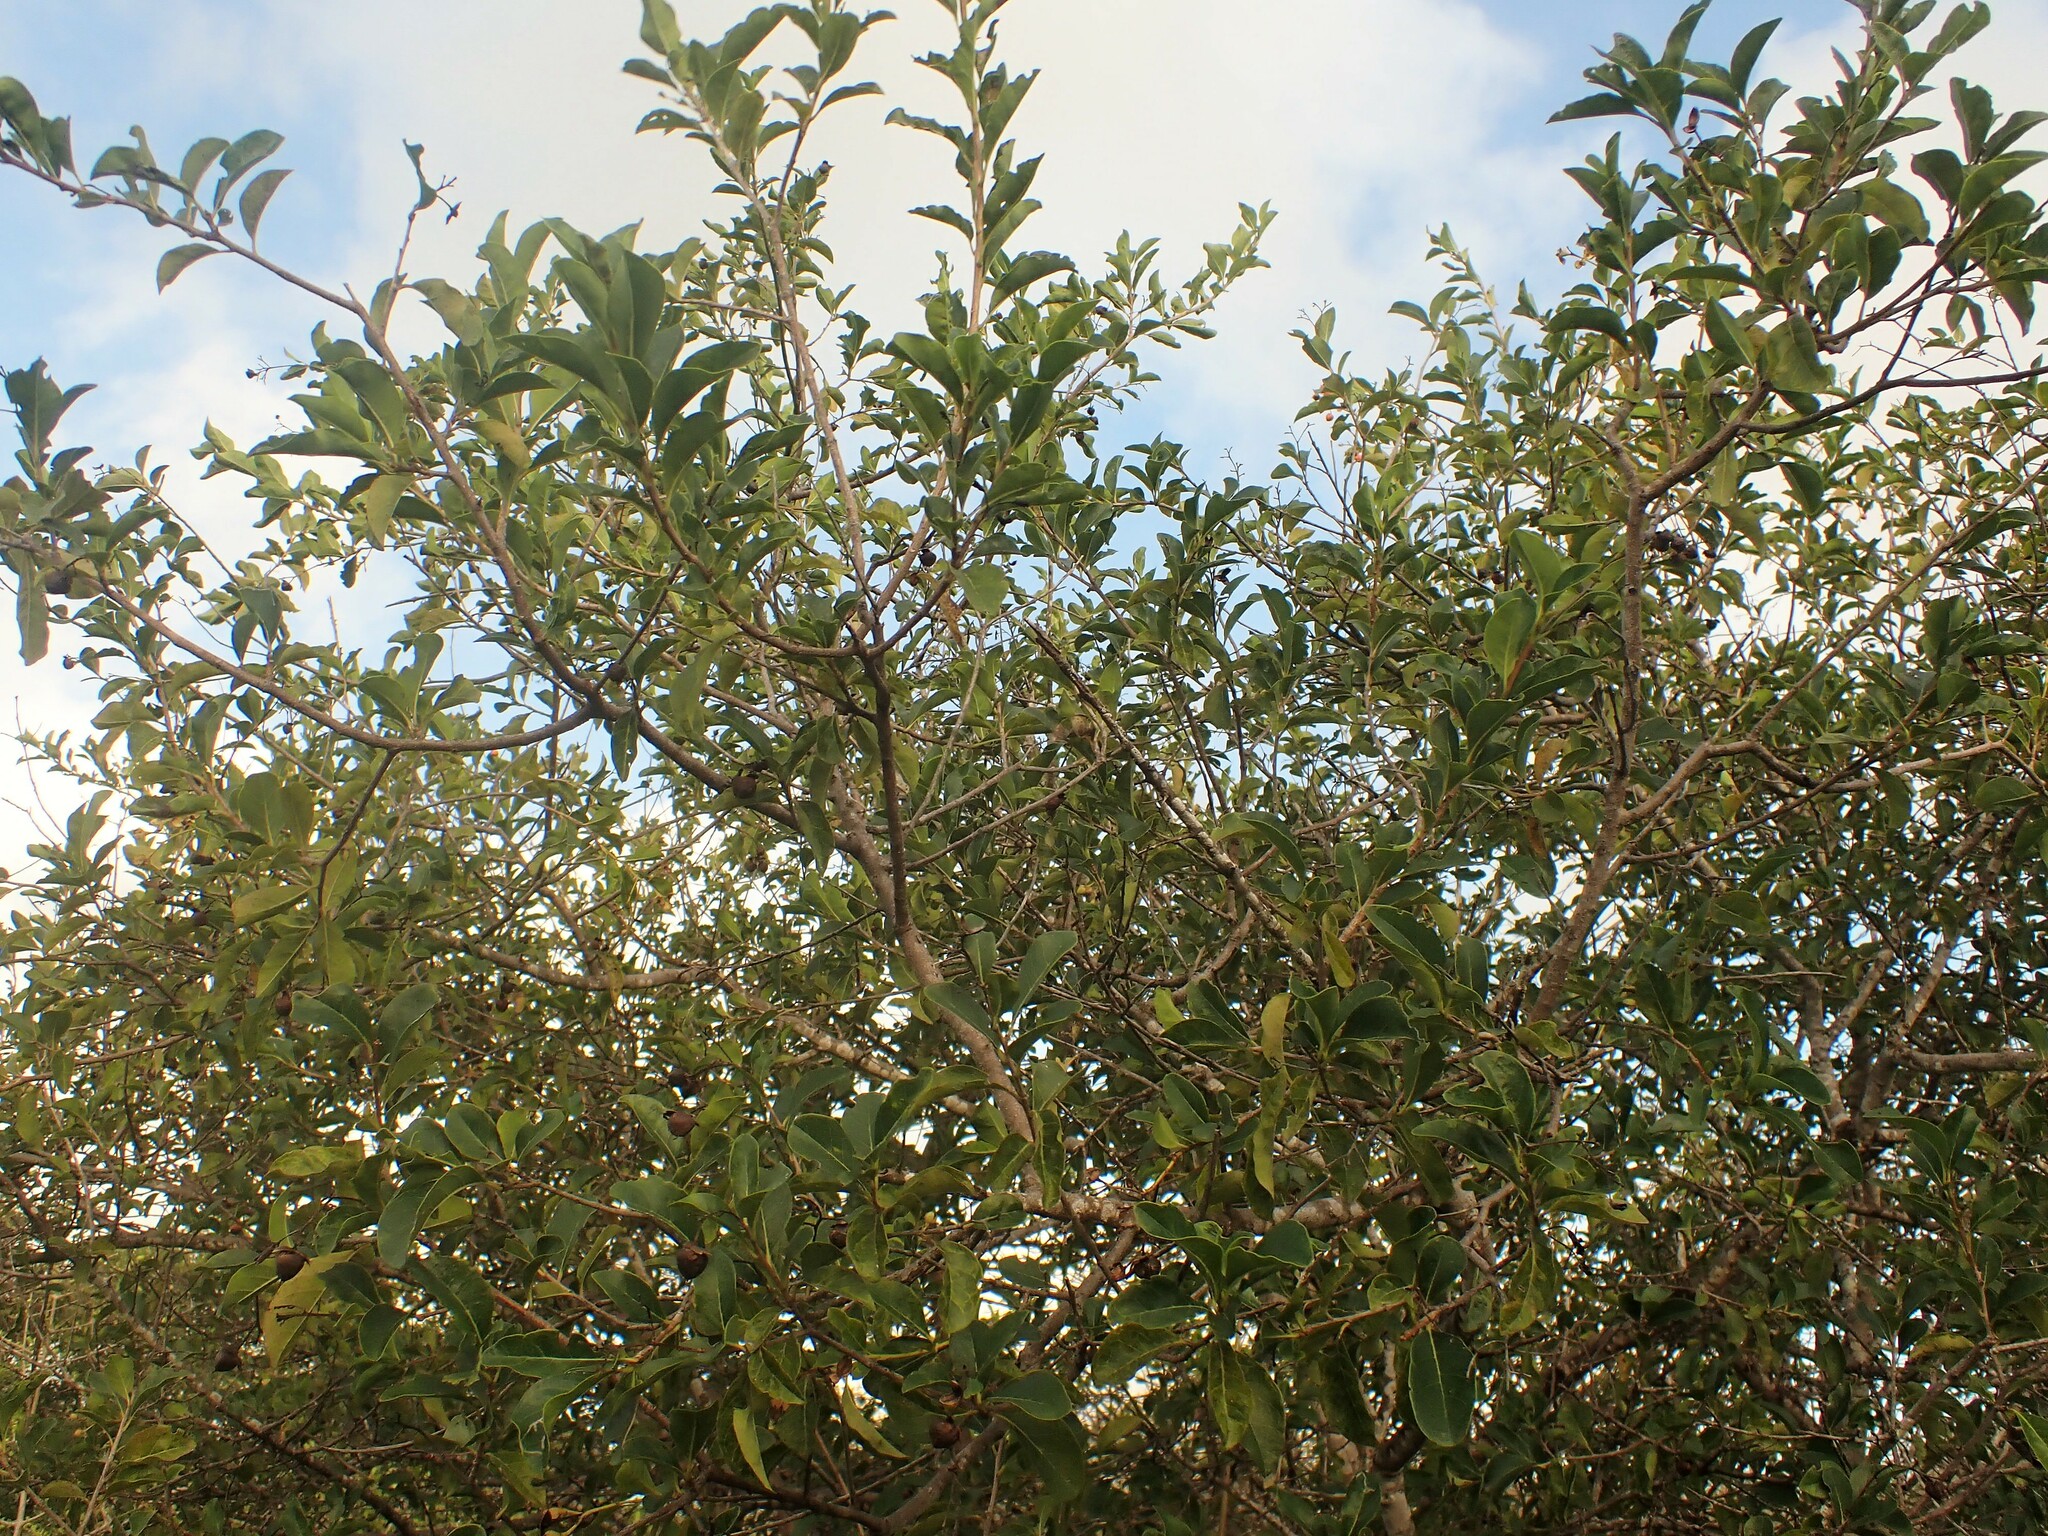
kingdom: Plantae
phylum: Tracheophyta
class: Magnoliopsida
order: Boraginales
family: Ehretiaceae
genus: Bourreria
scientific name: Bourreria succulenta
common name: Cherry
